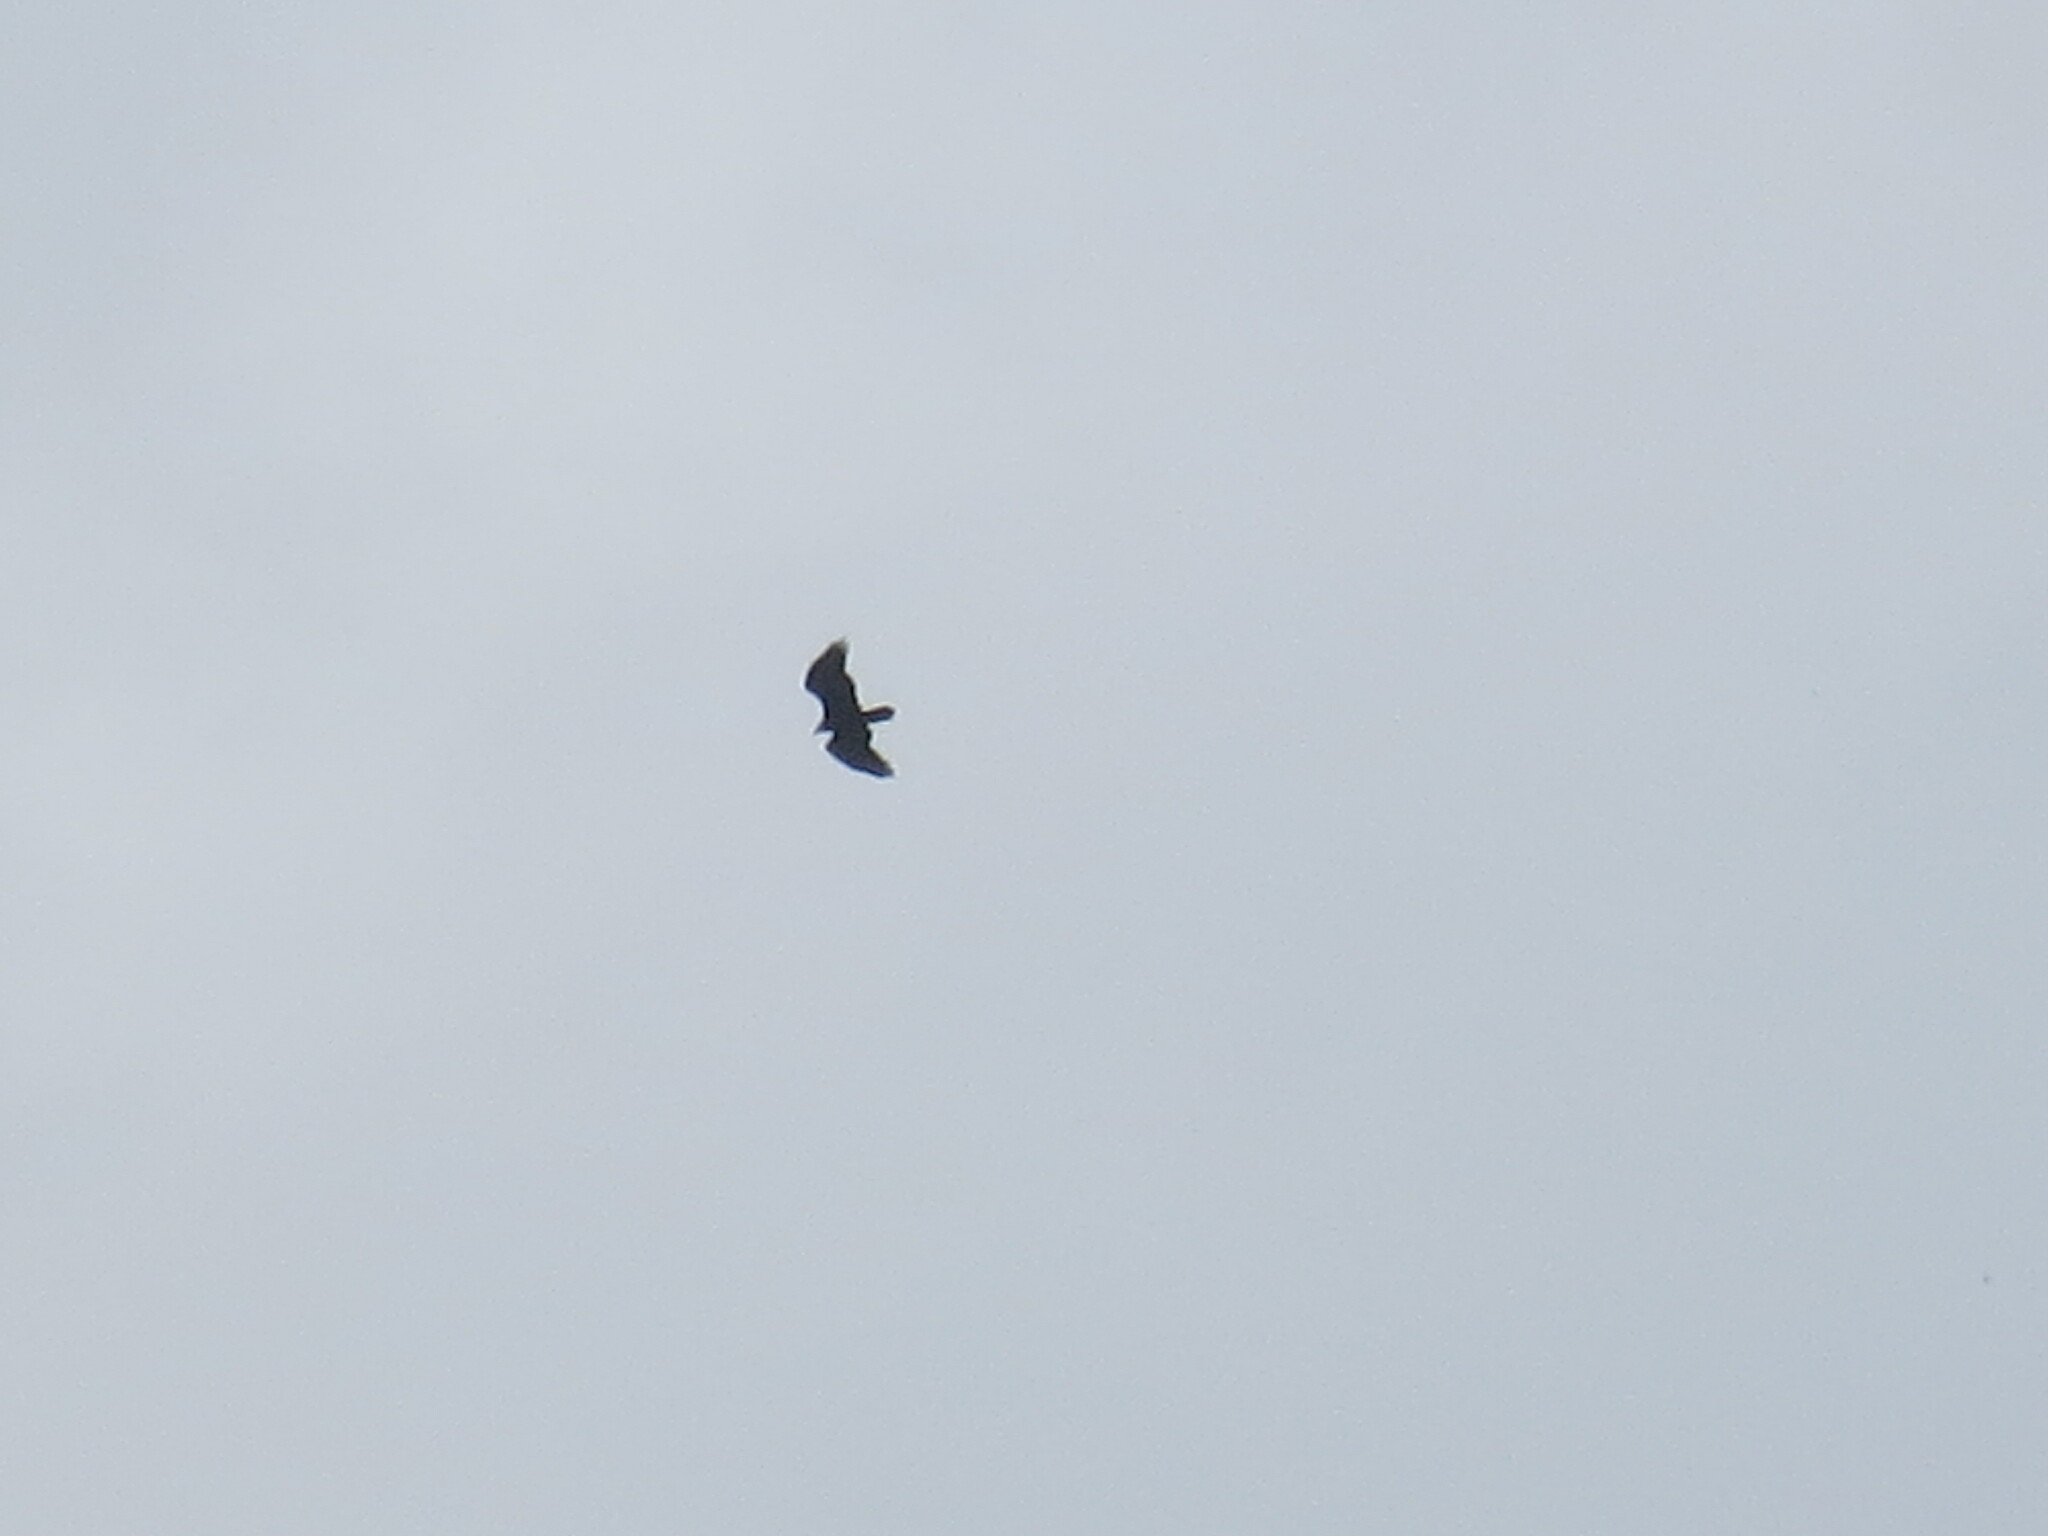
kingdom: Animalia
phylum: Chordata
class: Aves
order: Accipitriformes
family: Cathartidae
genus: Cathartes
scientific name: Cathartes aura
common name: Turkey vulture
